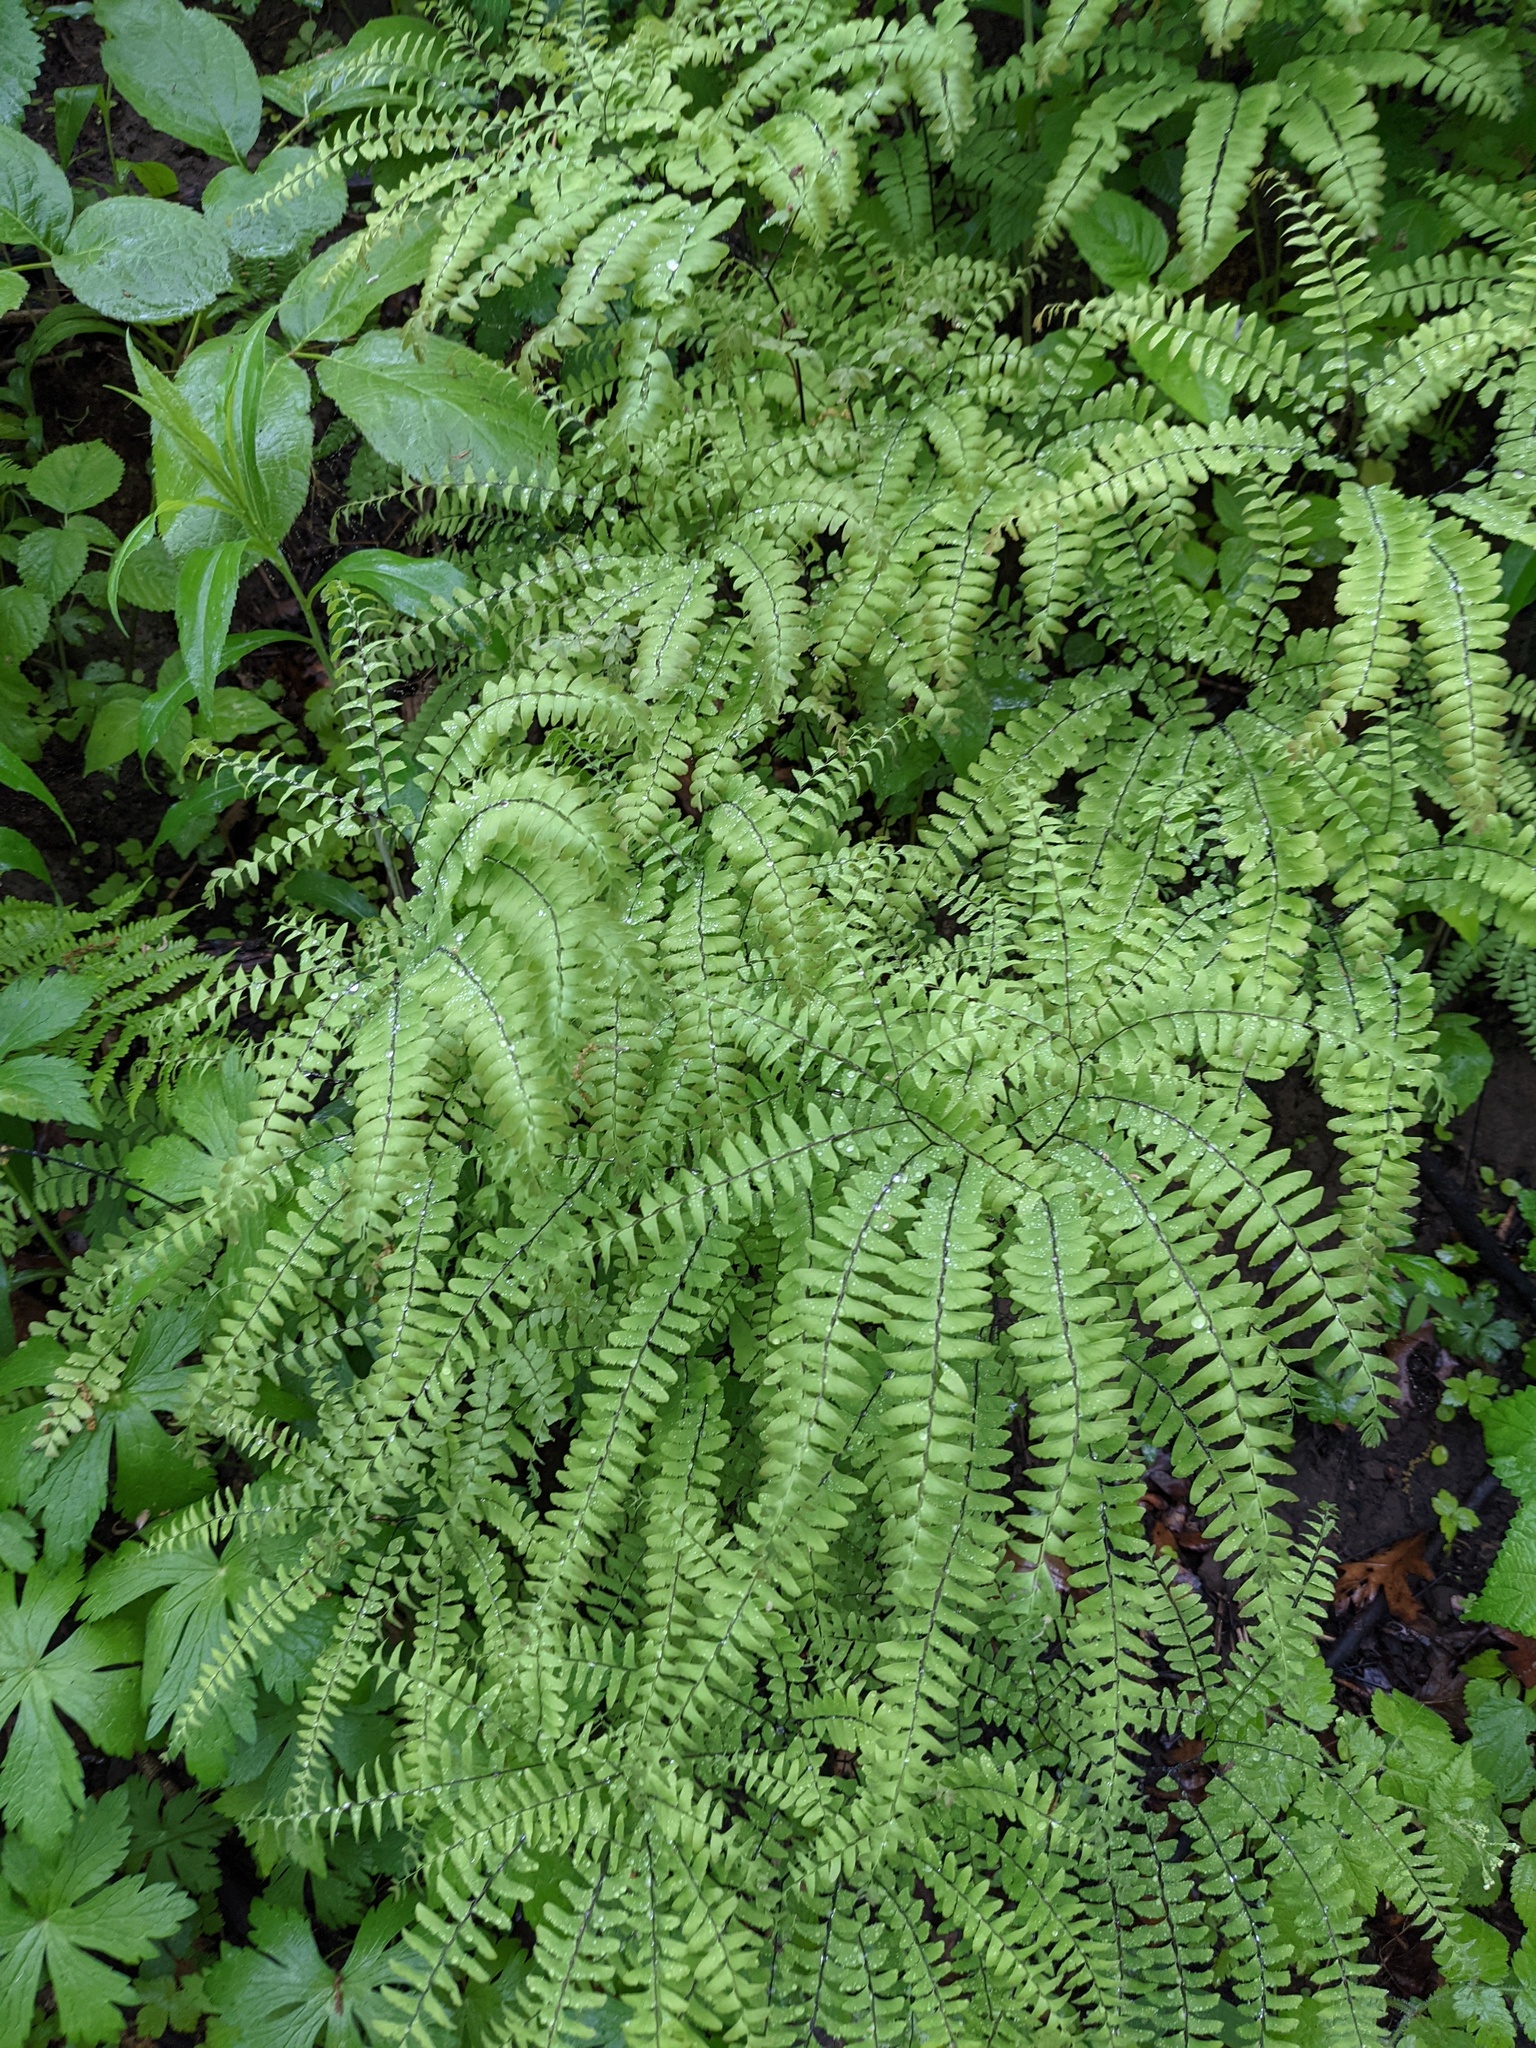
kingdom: Plantae
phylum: Tracheophyta
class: Polypodiopsida
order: Polypodiales
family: Pteridaceae
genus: Adiantum
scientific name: Adiantum pedatum
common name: Five-finger fern
